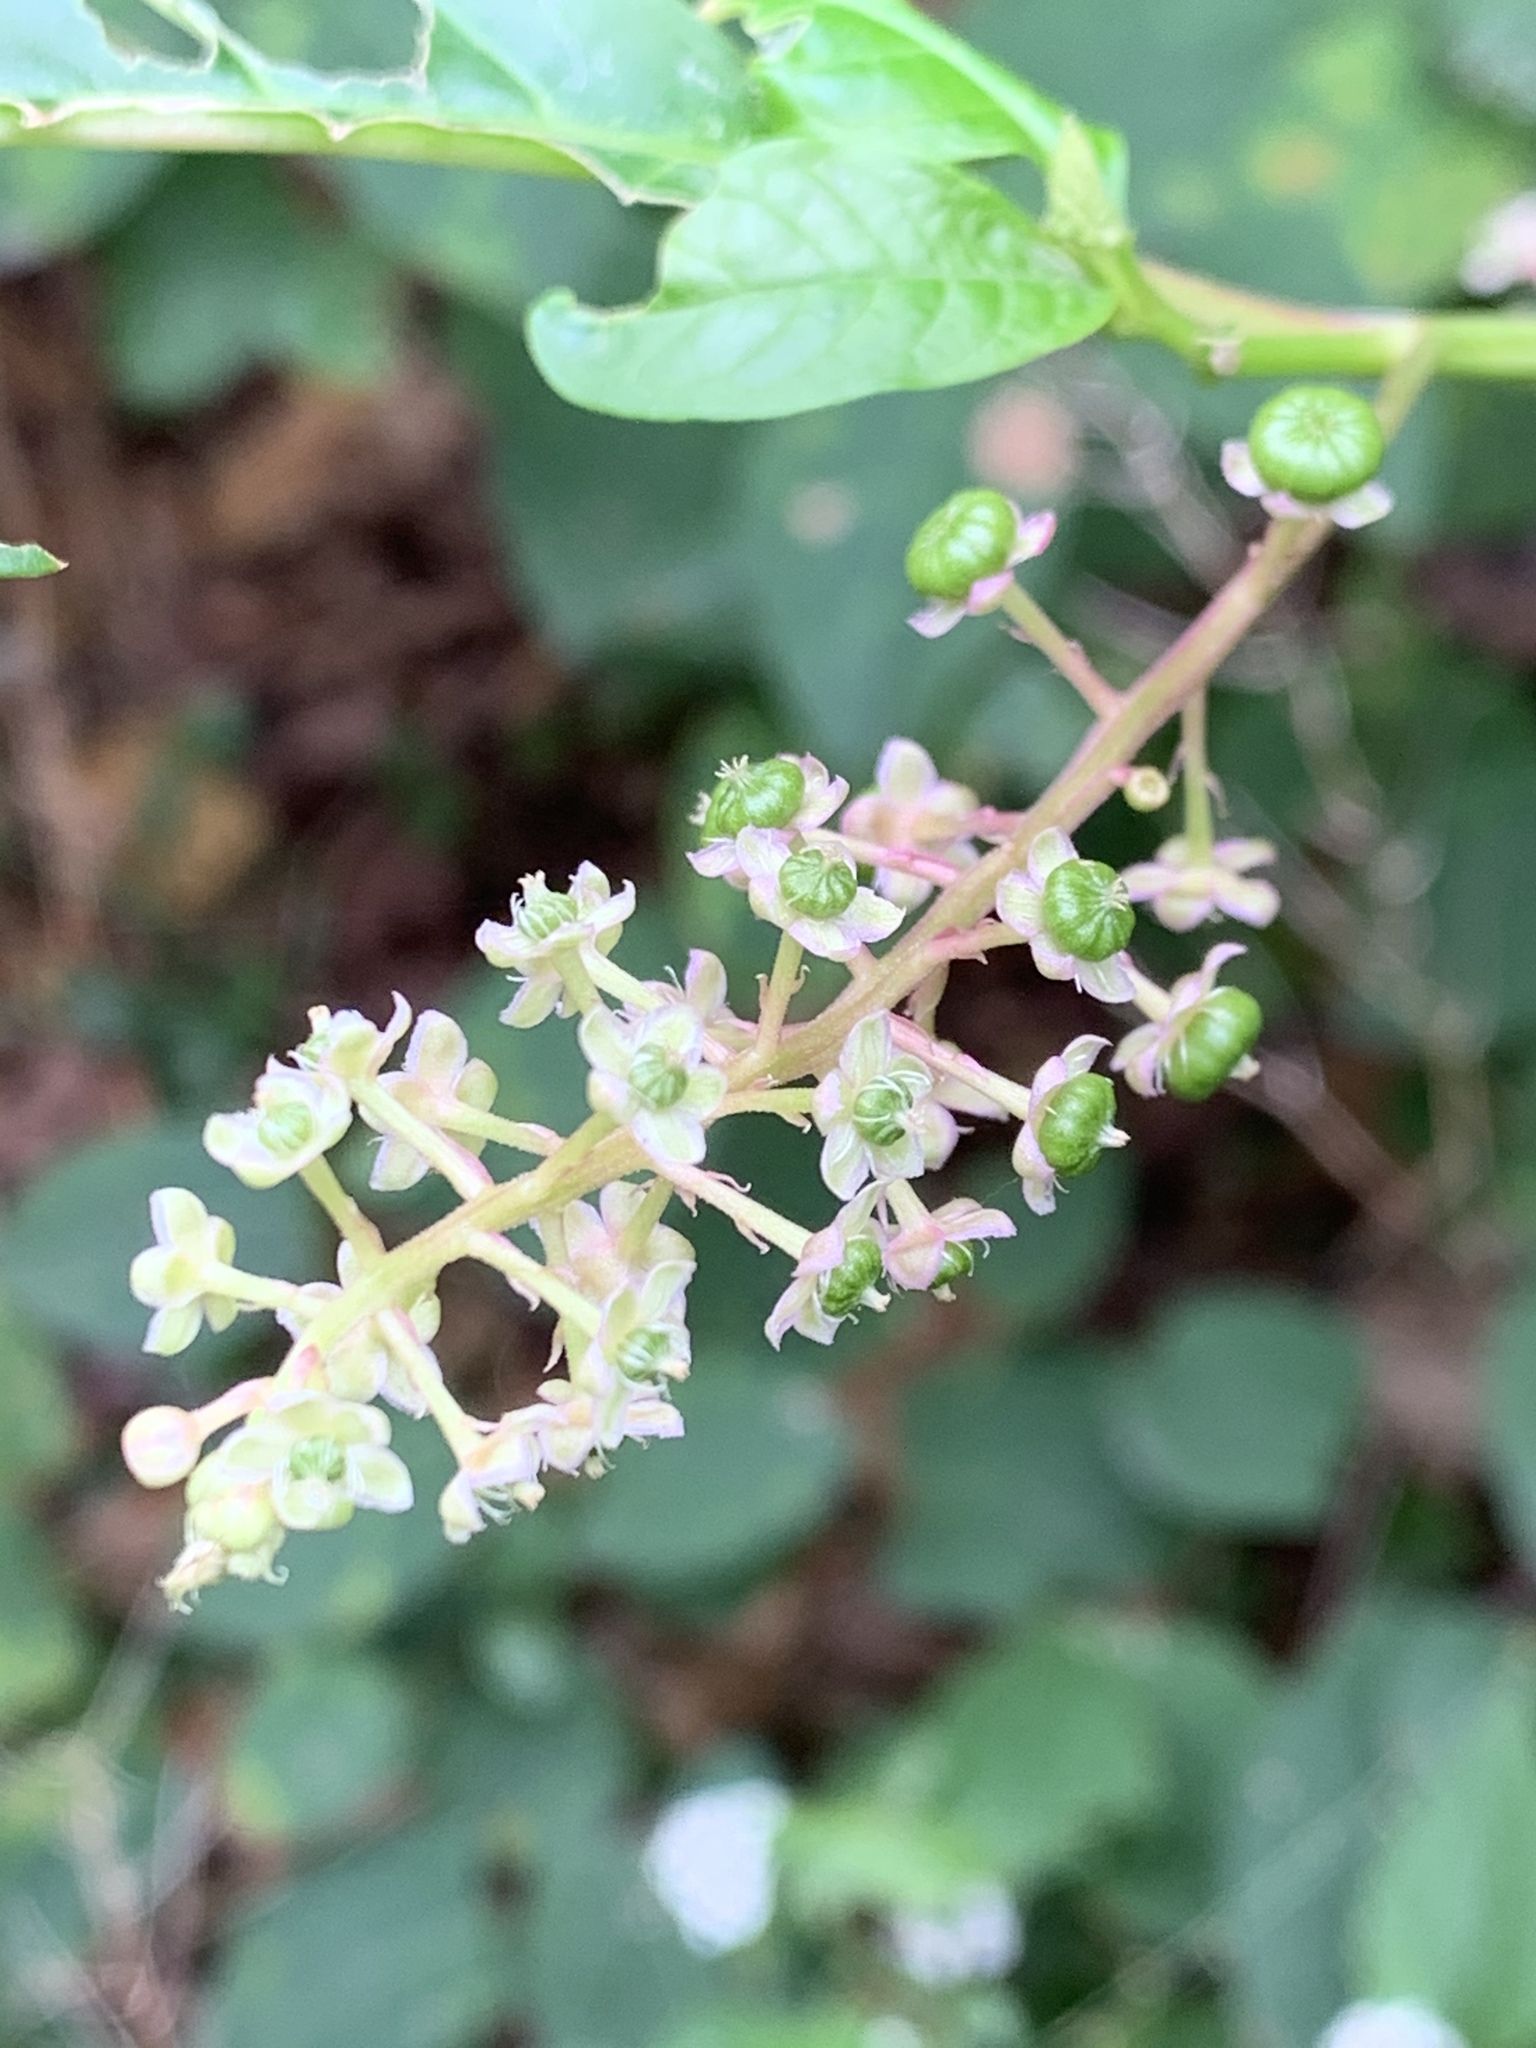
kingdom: Plantae
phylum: Tracheophyta
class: Magnoliopsida
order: Caryophyllales
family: Phytolaccaceae
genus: Phytolacca
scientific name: Phytolacca americana
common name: American pokeweed
